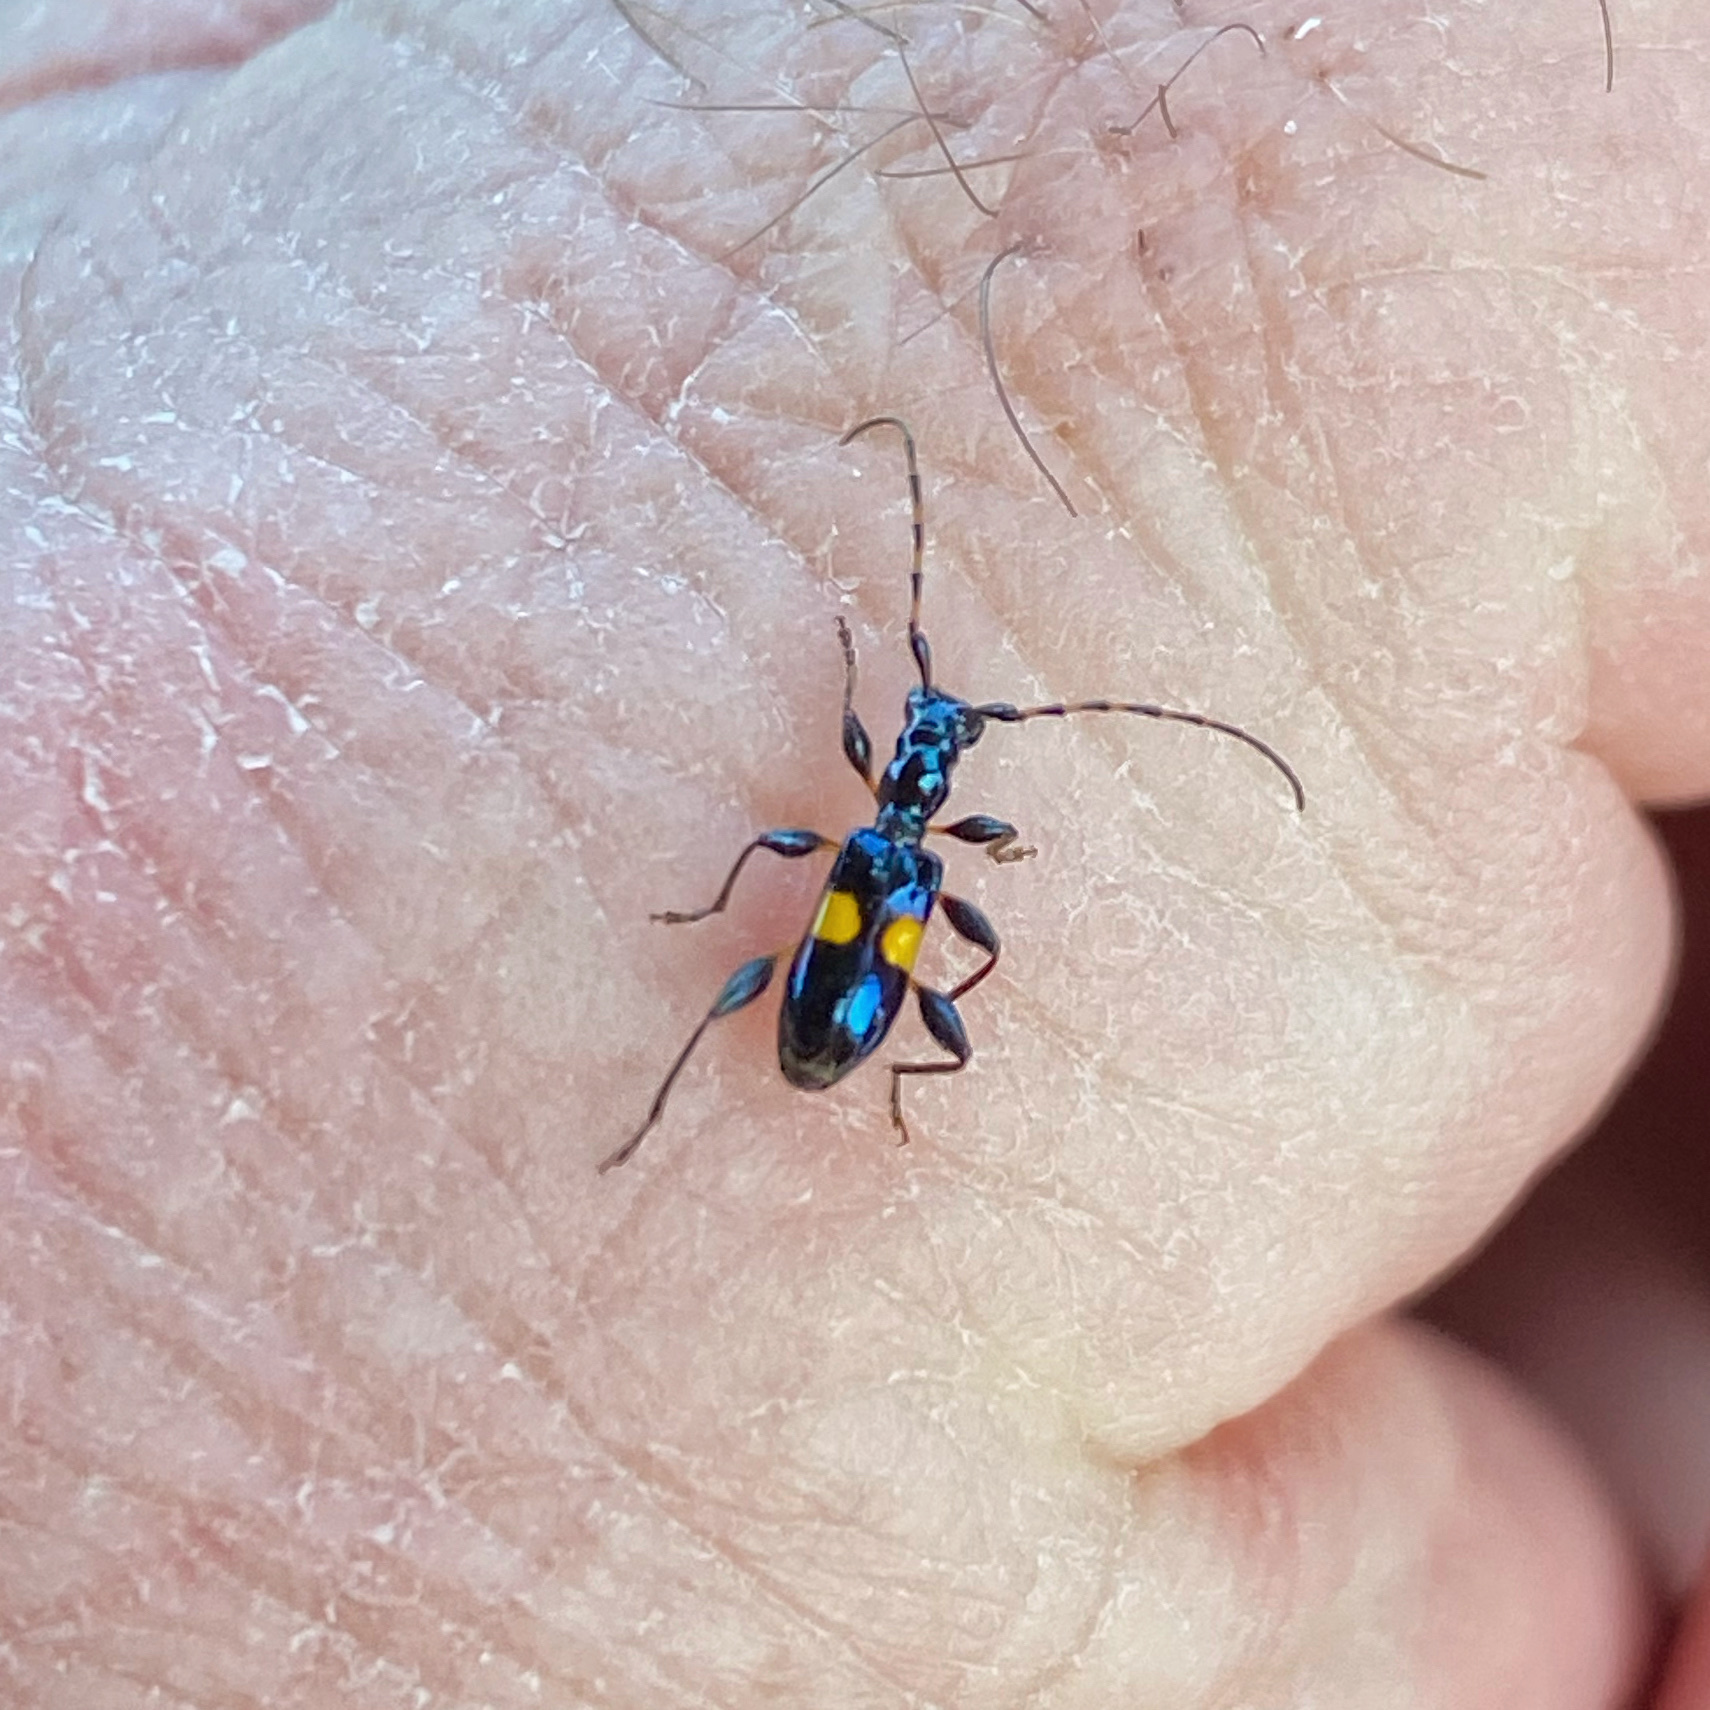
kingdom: Animalia
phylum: Arthropoda
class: Insecta
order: Coleoptera
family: Cerambycidae
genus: Zorion
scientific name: Zorion guttigerum
